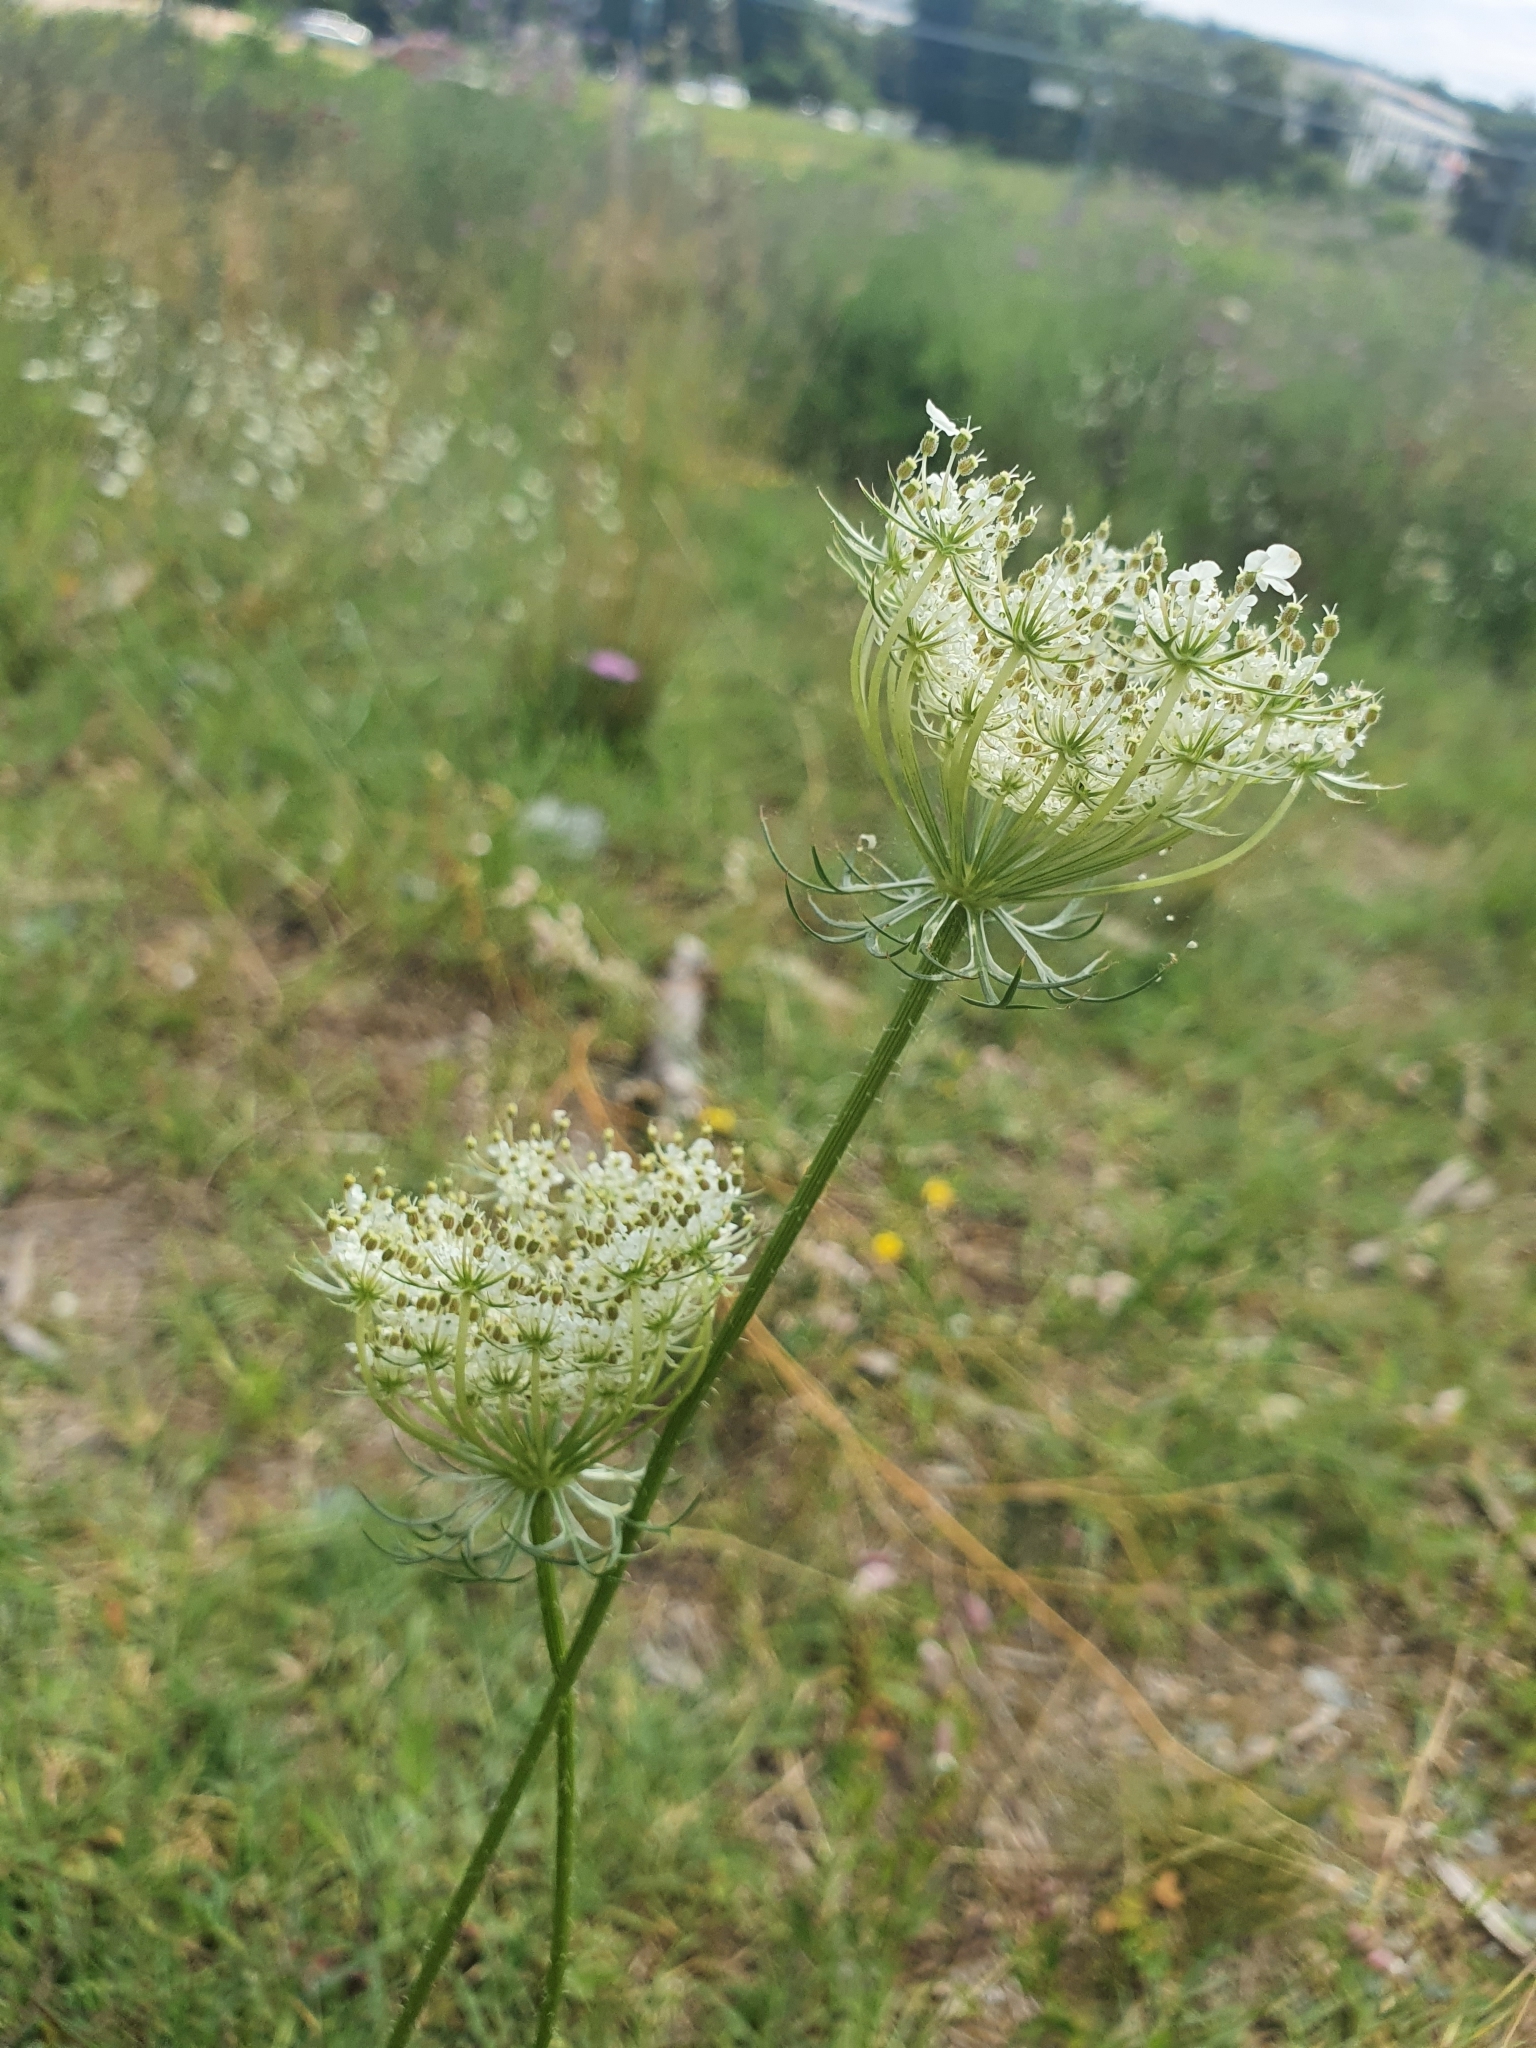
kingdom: Plantae
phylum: Tracheophyta
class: Magnoliopsida
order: Apiales
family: Apiaceae
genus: Daucus
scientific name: Daucus carota
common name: Wild carrot
